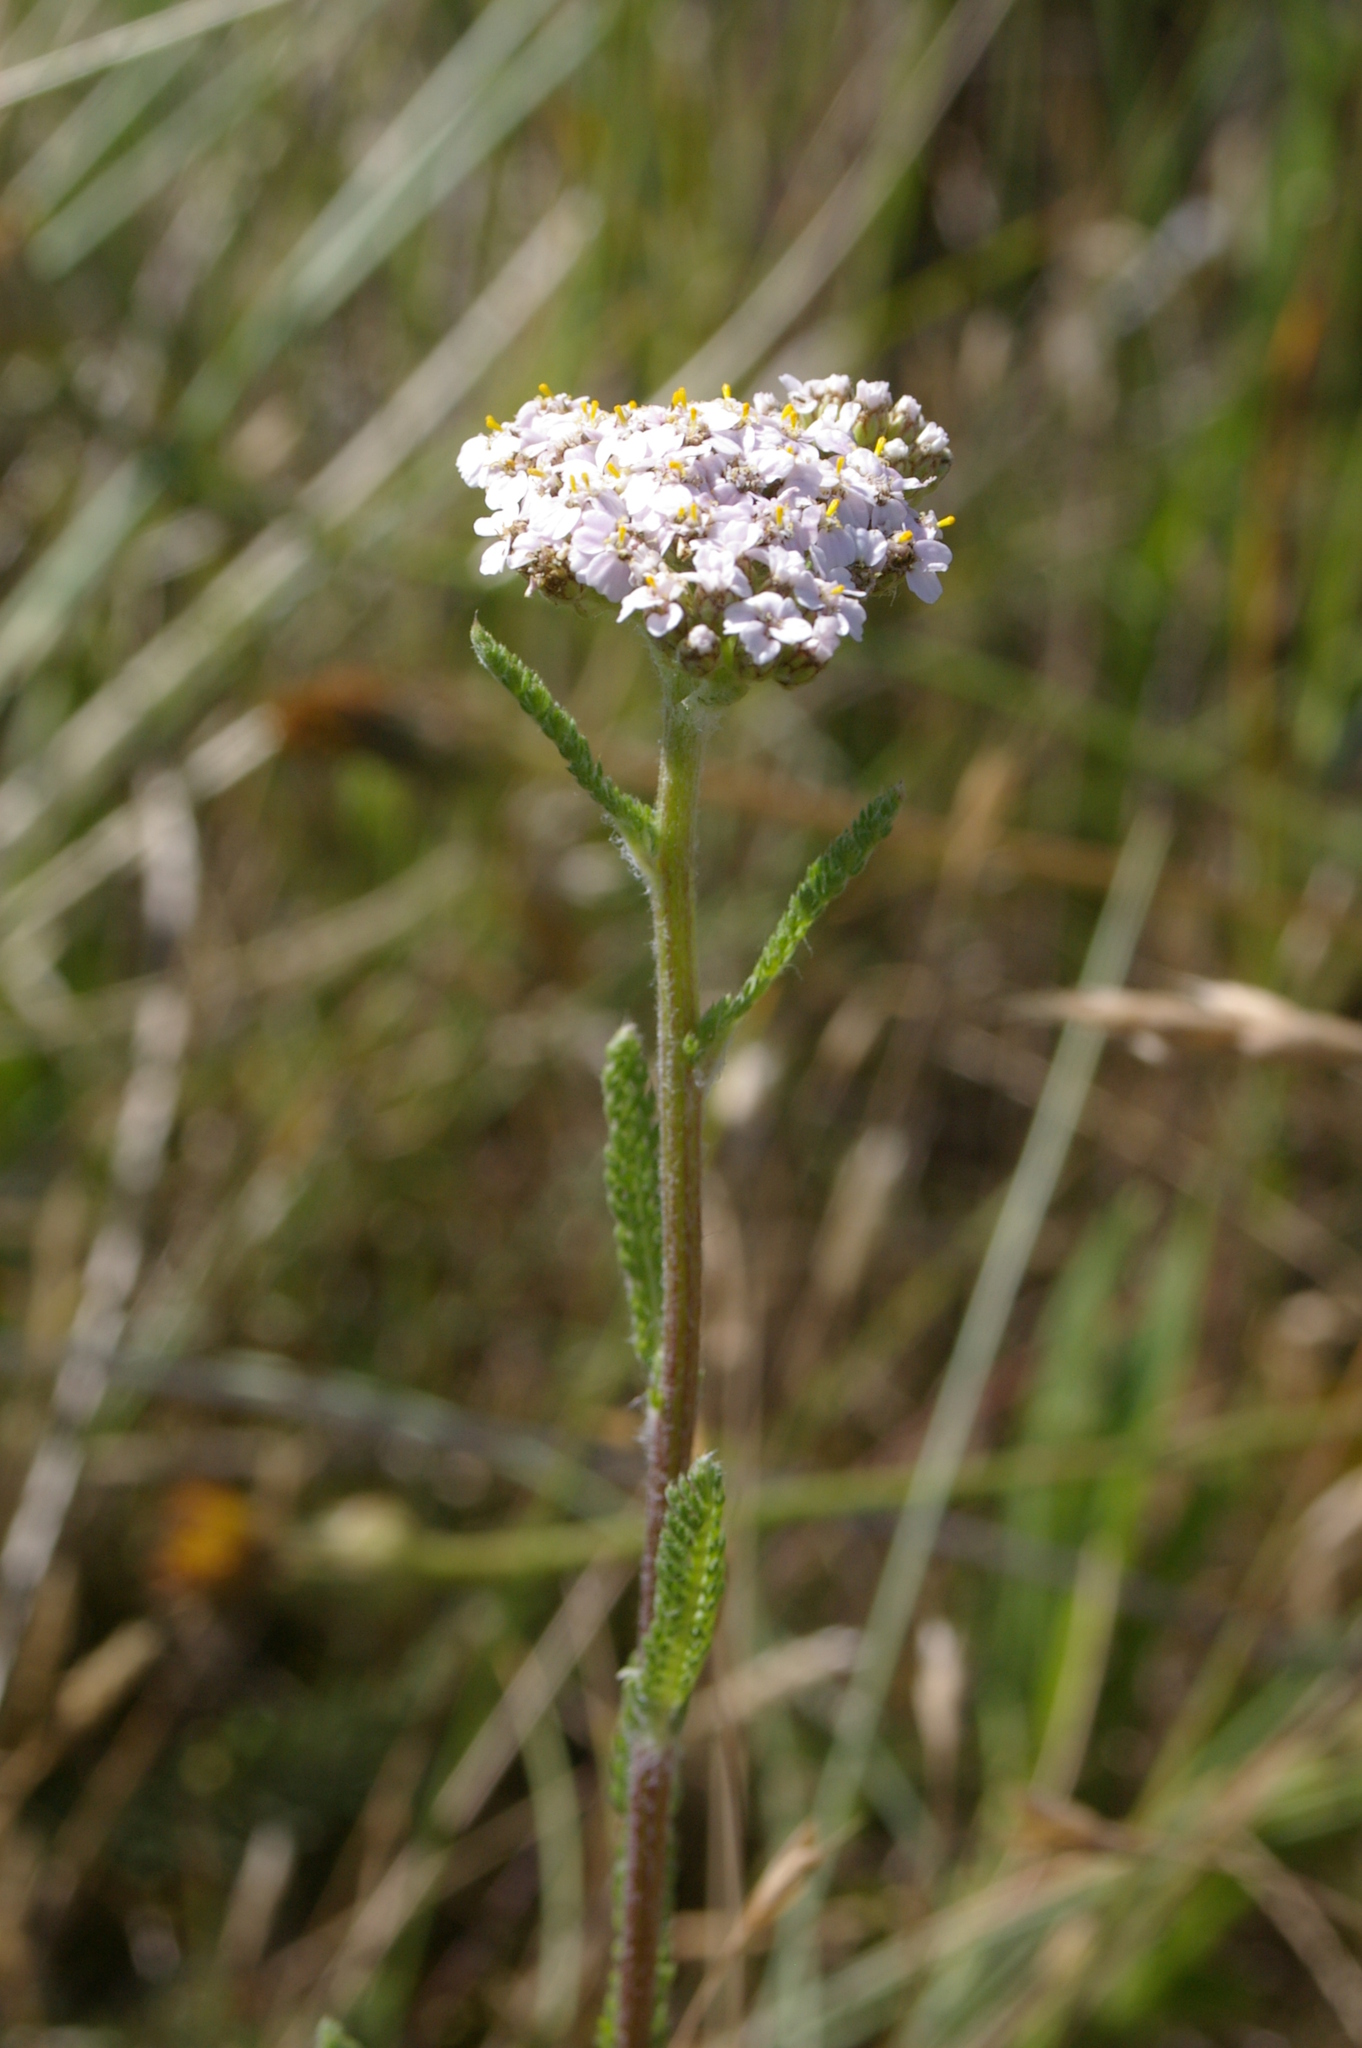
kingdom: Plantae
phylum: Tracheophyta
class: Magnoliopsida
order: Asterales
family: Asteraceae
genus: Achillea
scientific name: Achillea millefolium
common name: Yarrow
